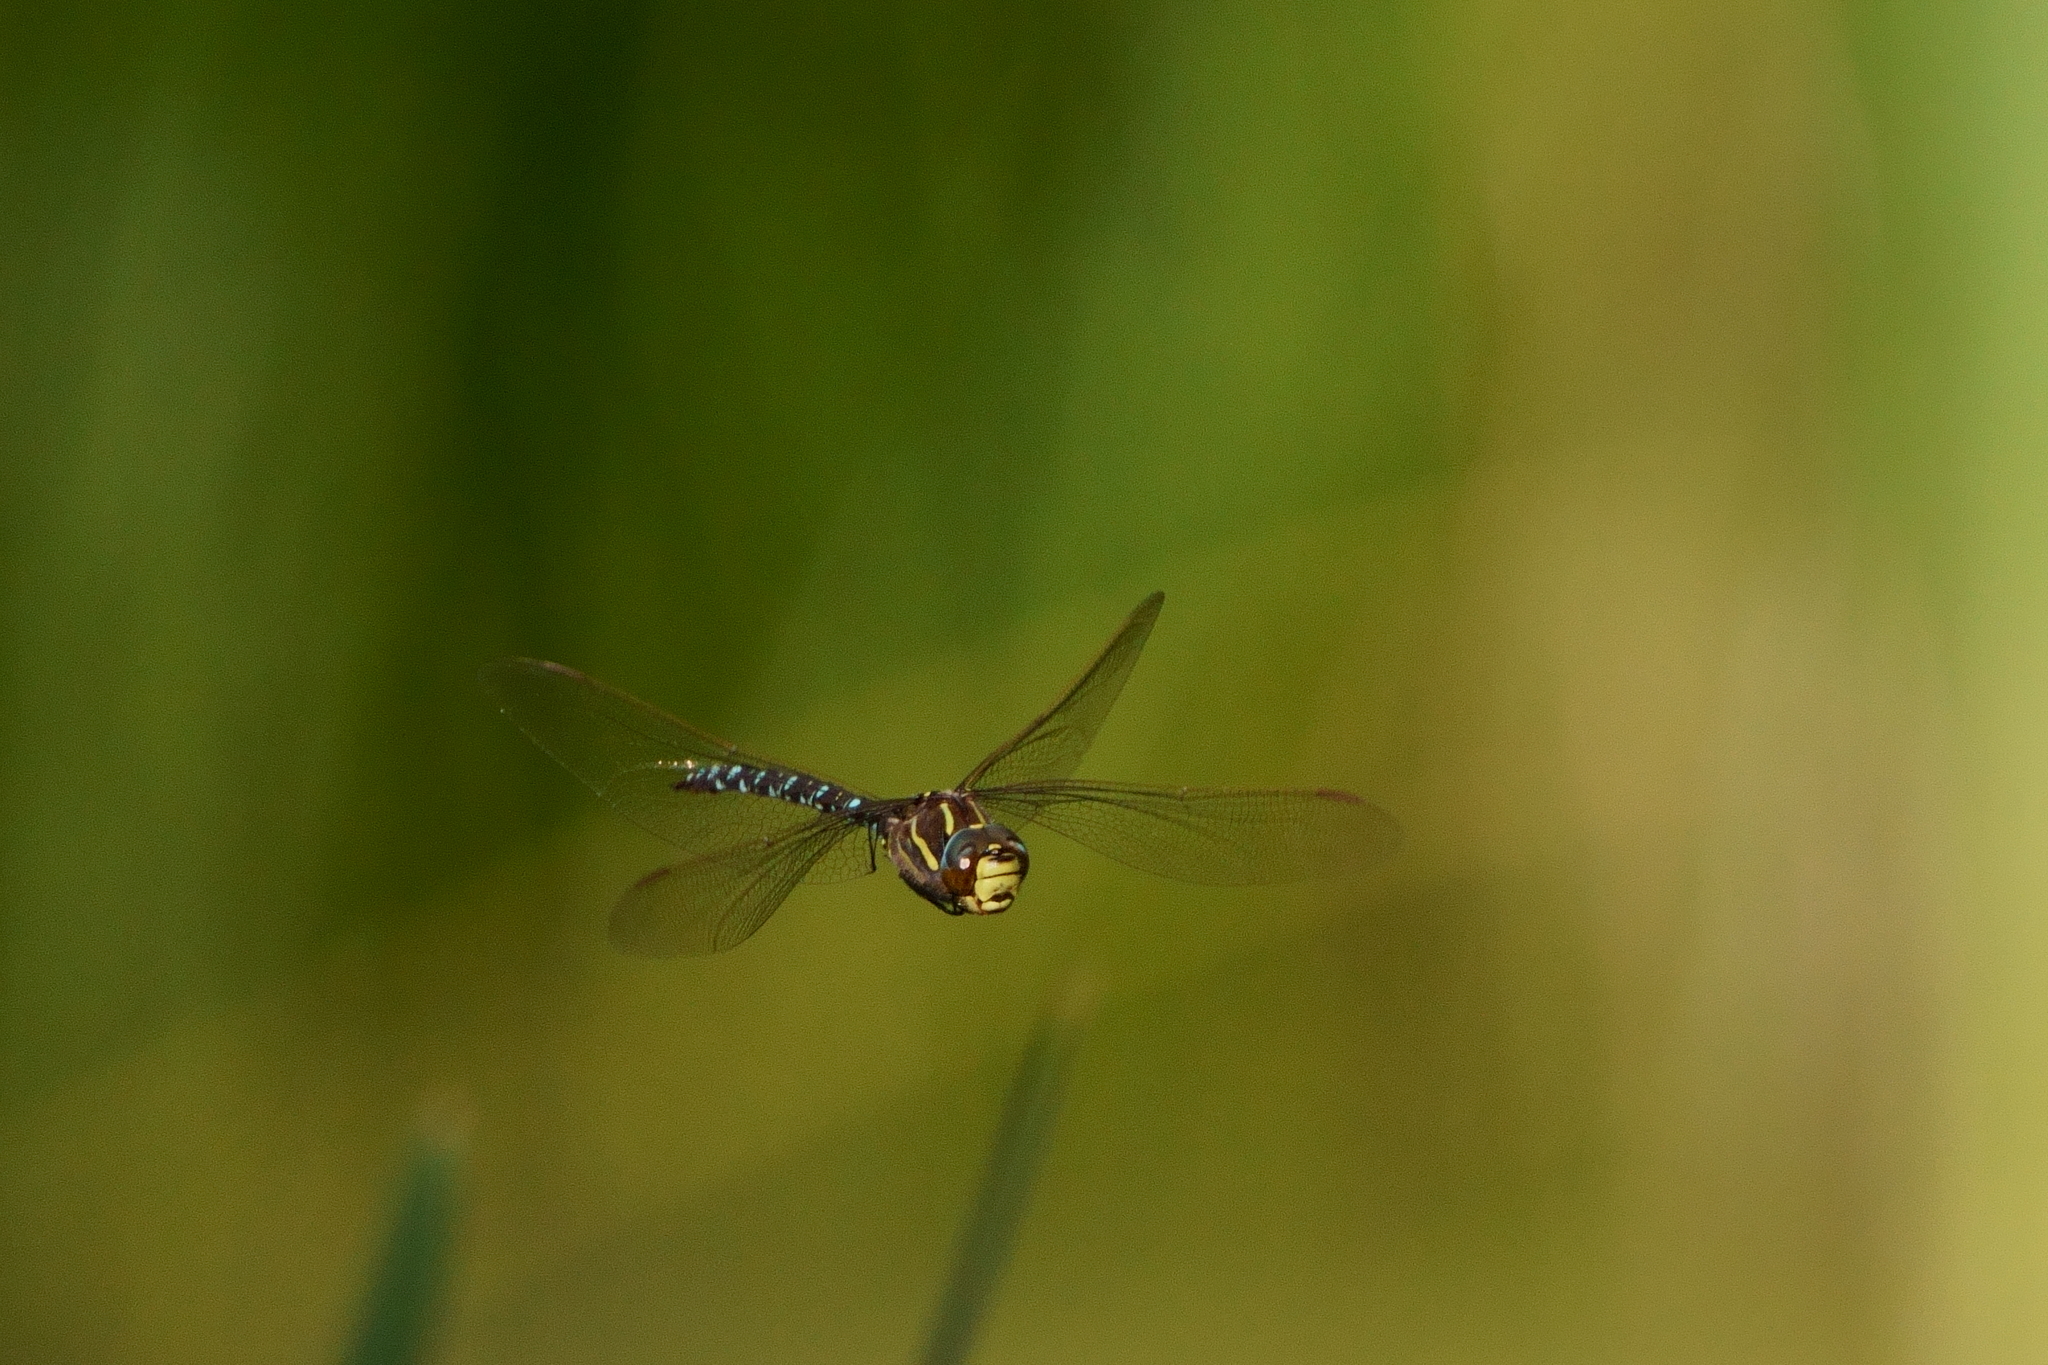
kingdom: Animalia
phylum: Arthropoda
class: Insecta
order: Odonata
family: Aeshnidae
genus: Aeshna
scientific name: Aeshna juncea
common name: Moorland hawker
